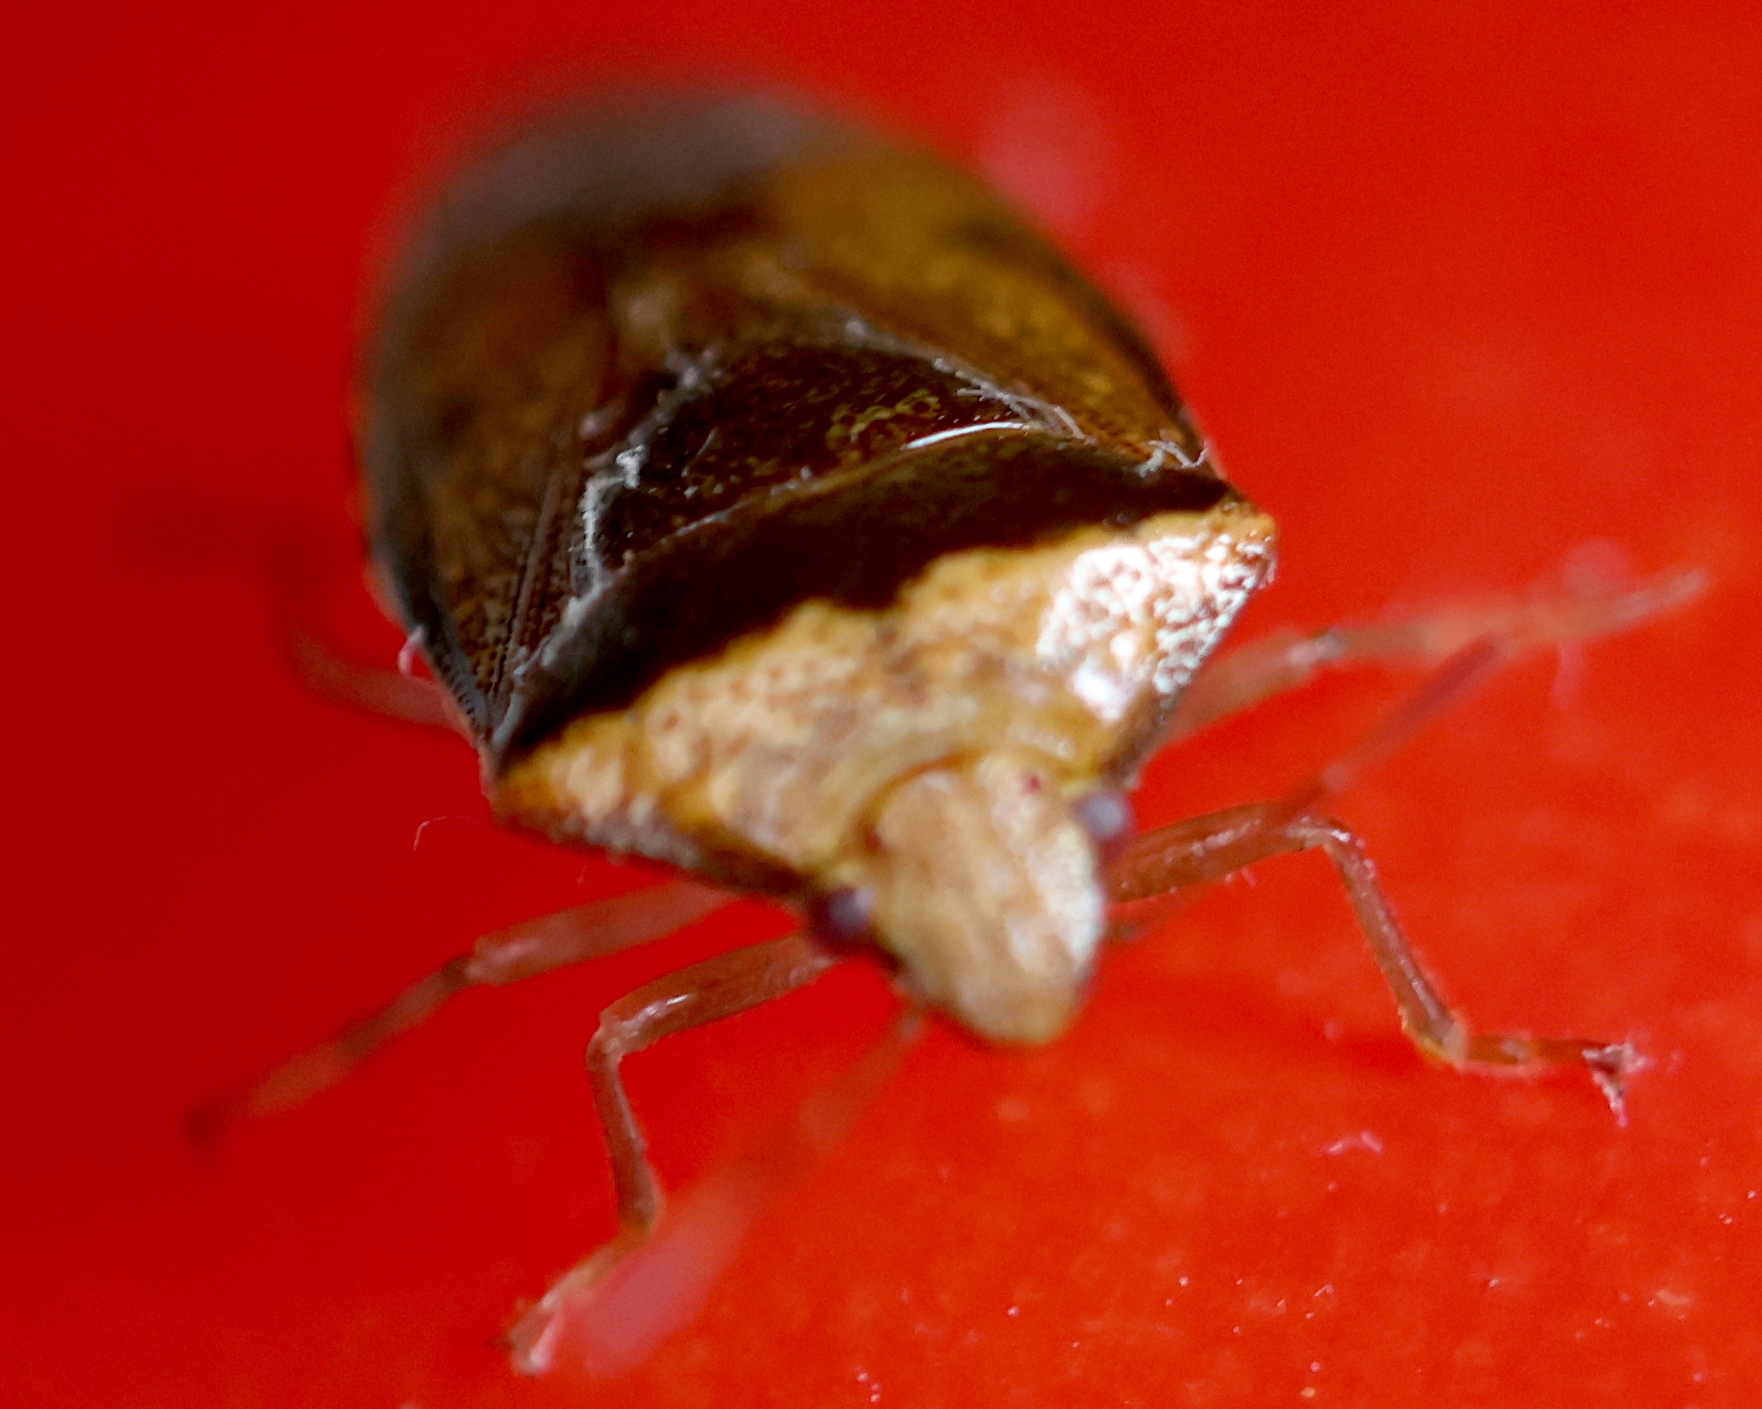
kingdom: Animalia
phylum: Arthropoda
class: Insecta
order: Hemiptera
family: Pentatomidae
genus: Banasa
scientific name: Banasa calva
